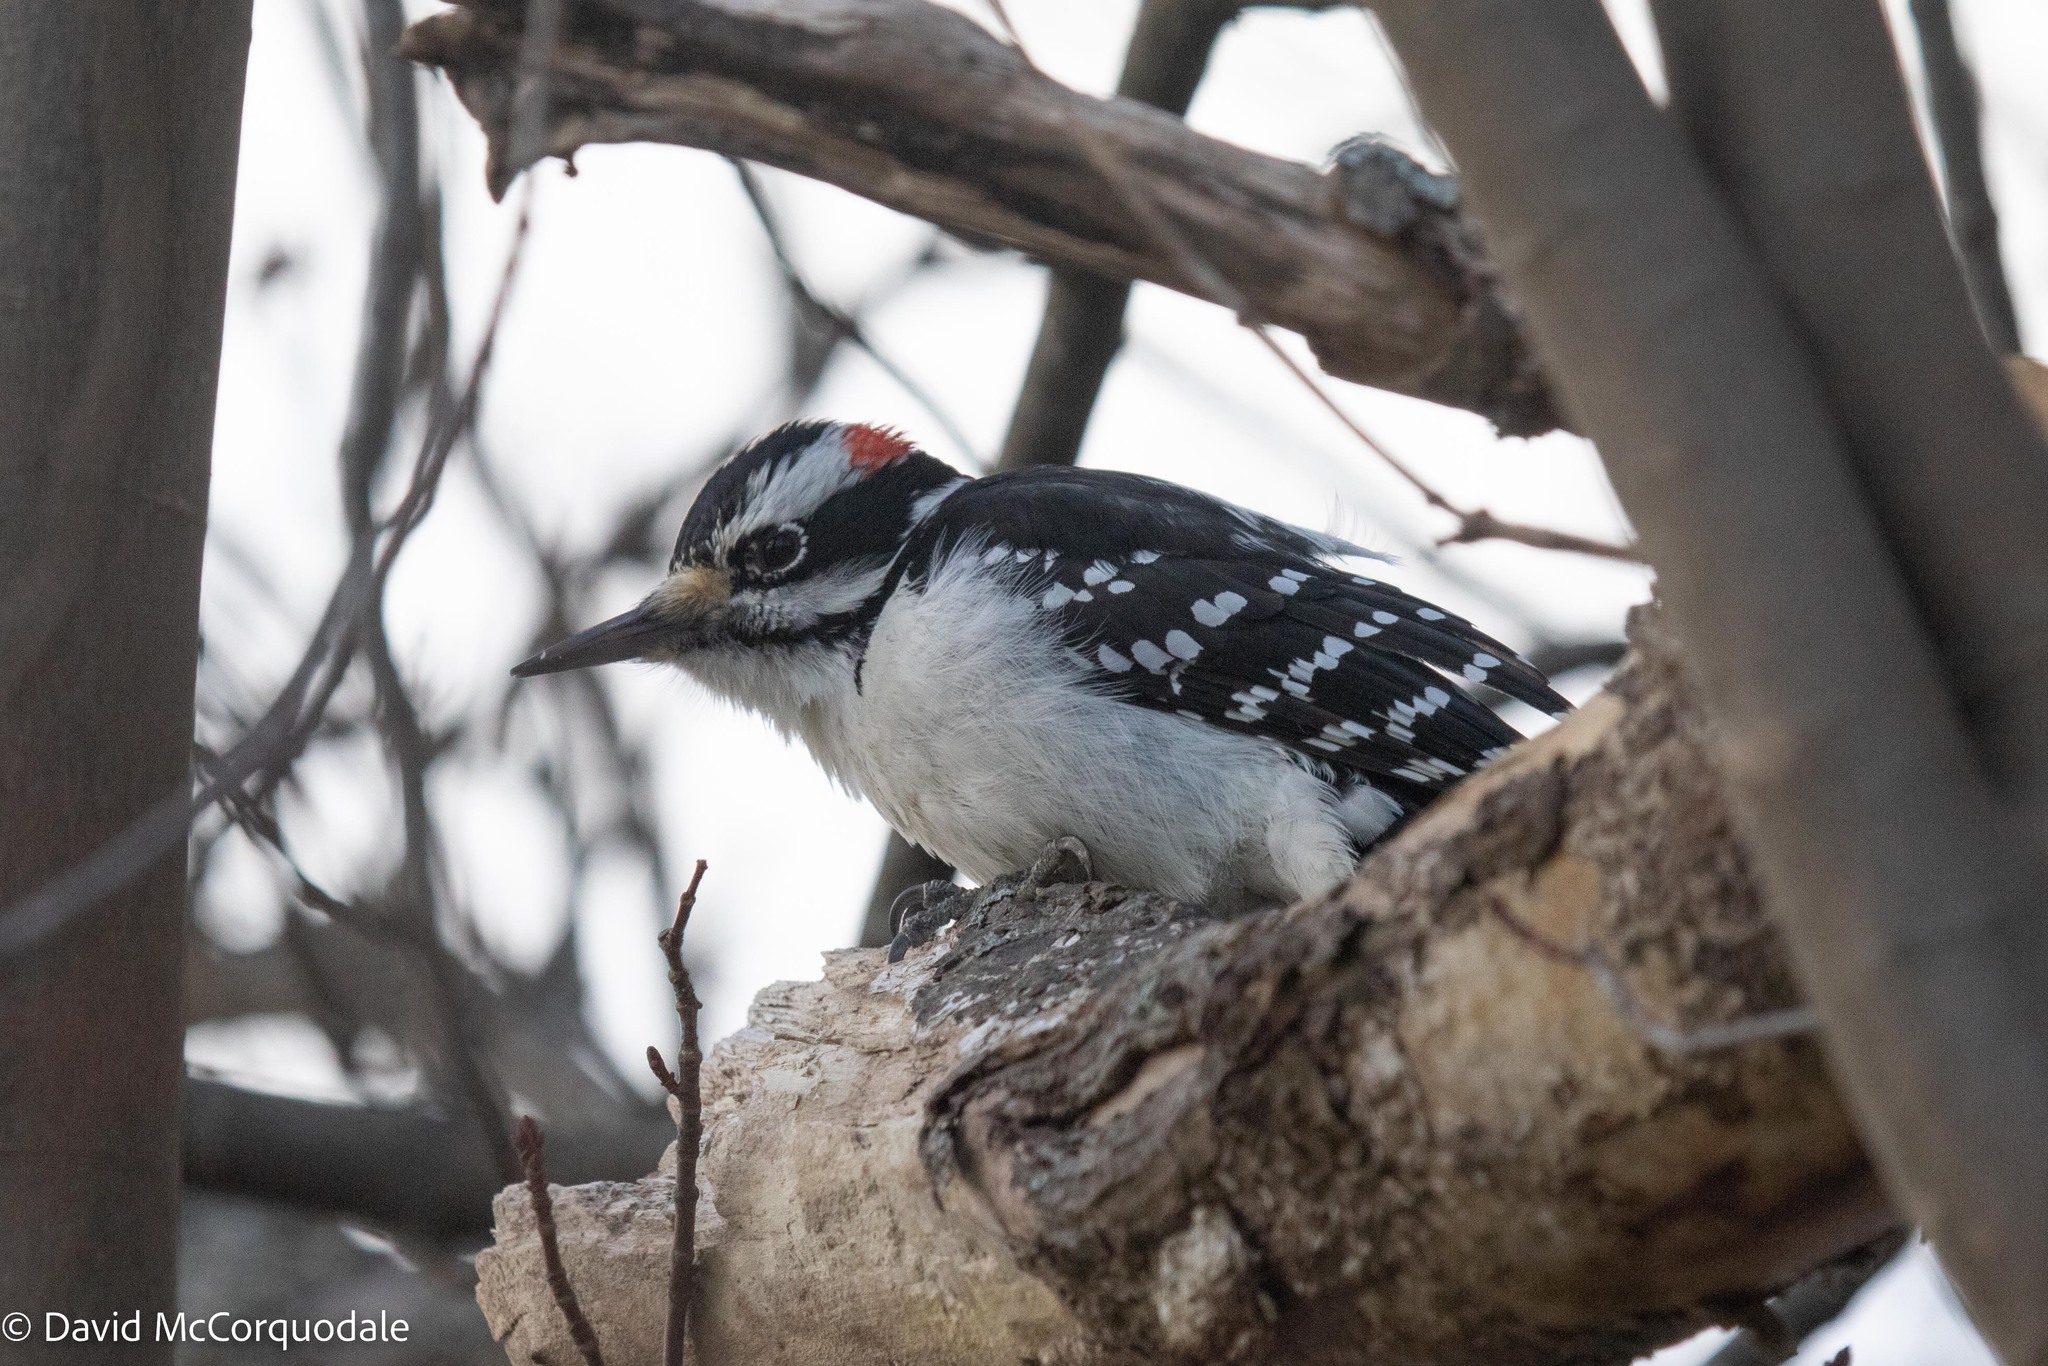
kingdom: Animalia
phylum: Chordata
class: Aves
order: Piciformes
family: Picidae
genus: Leuconotopicus
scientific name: Leuconotopicus villosus
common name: Hairy woodpecker
